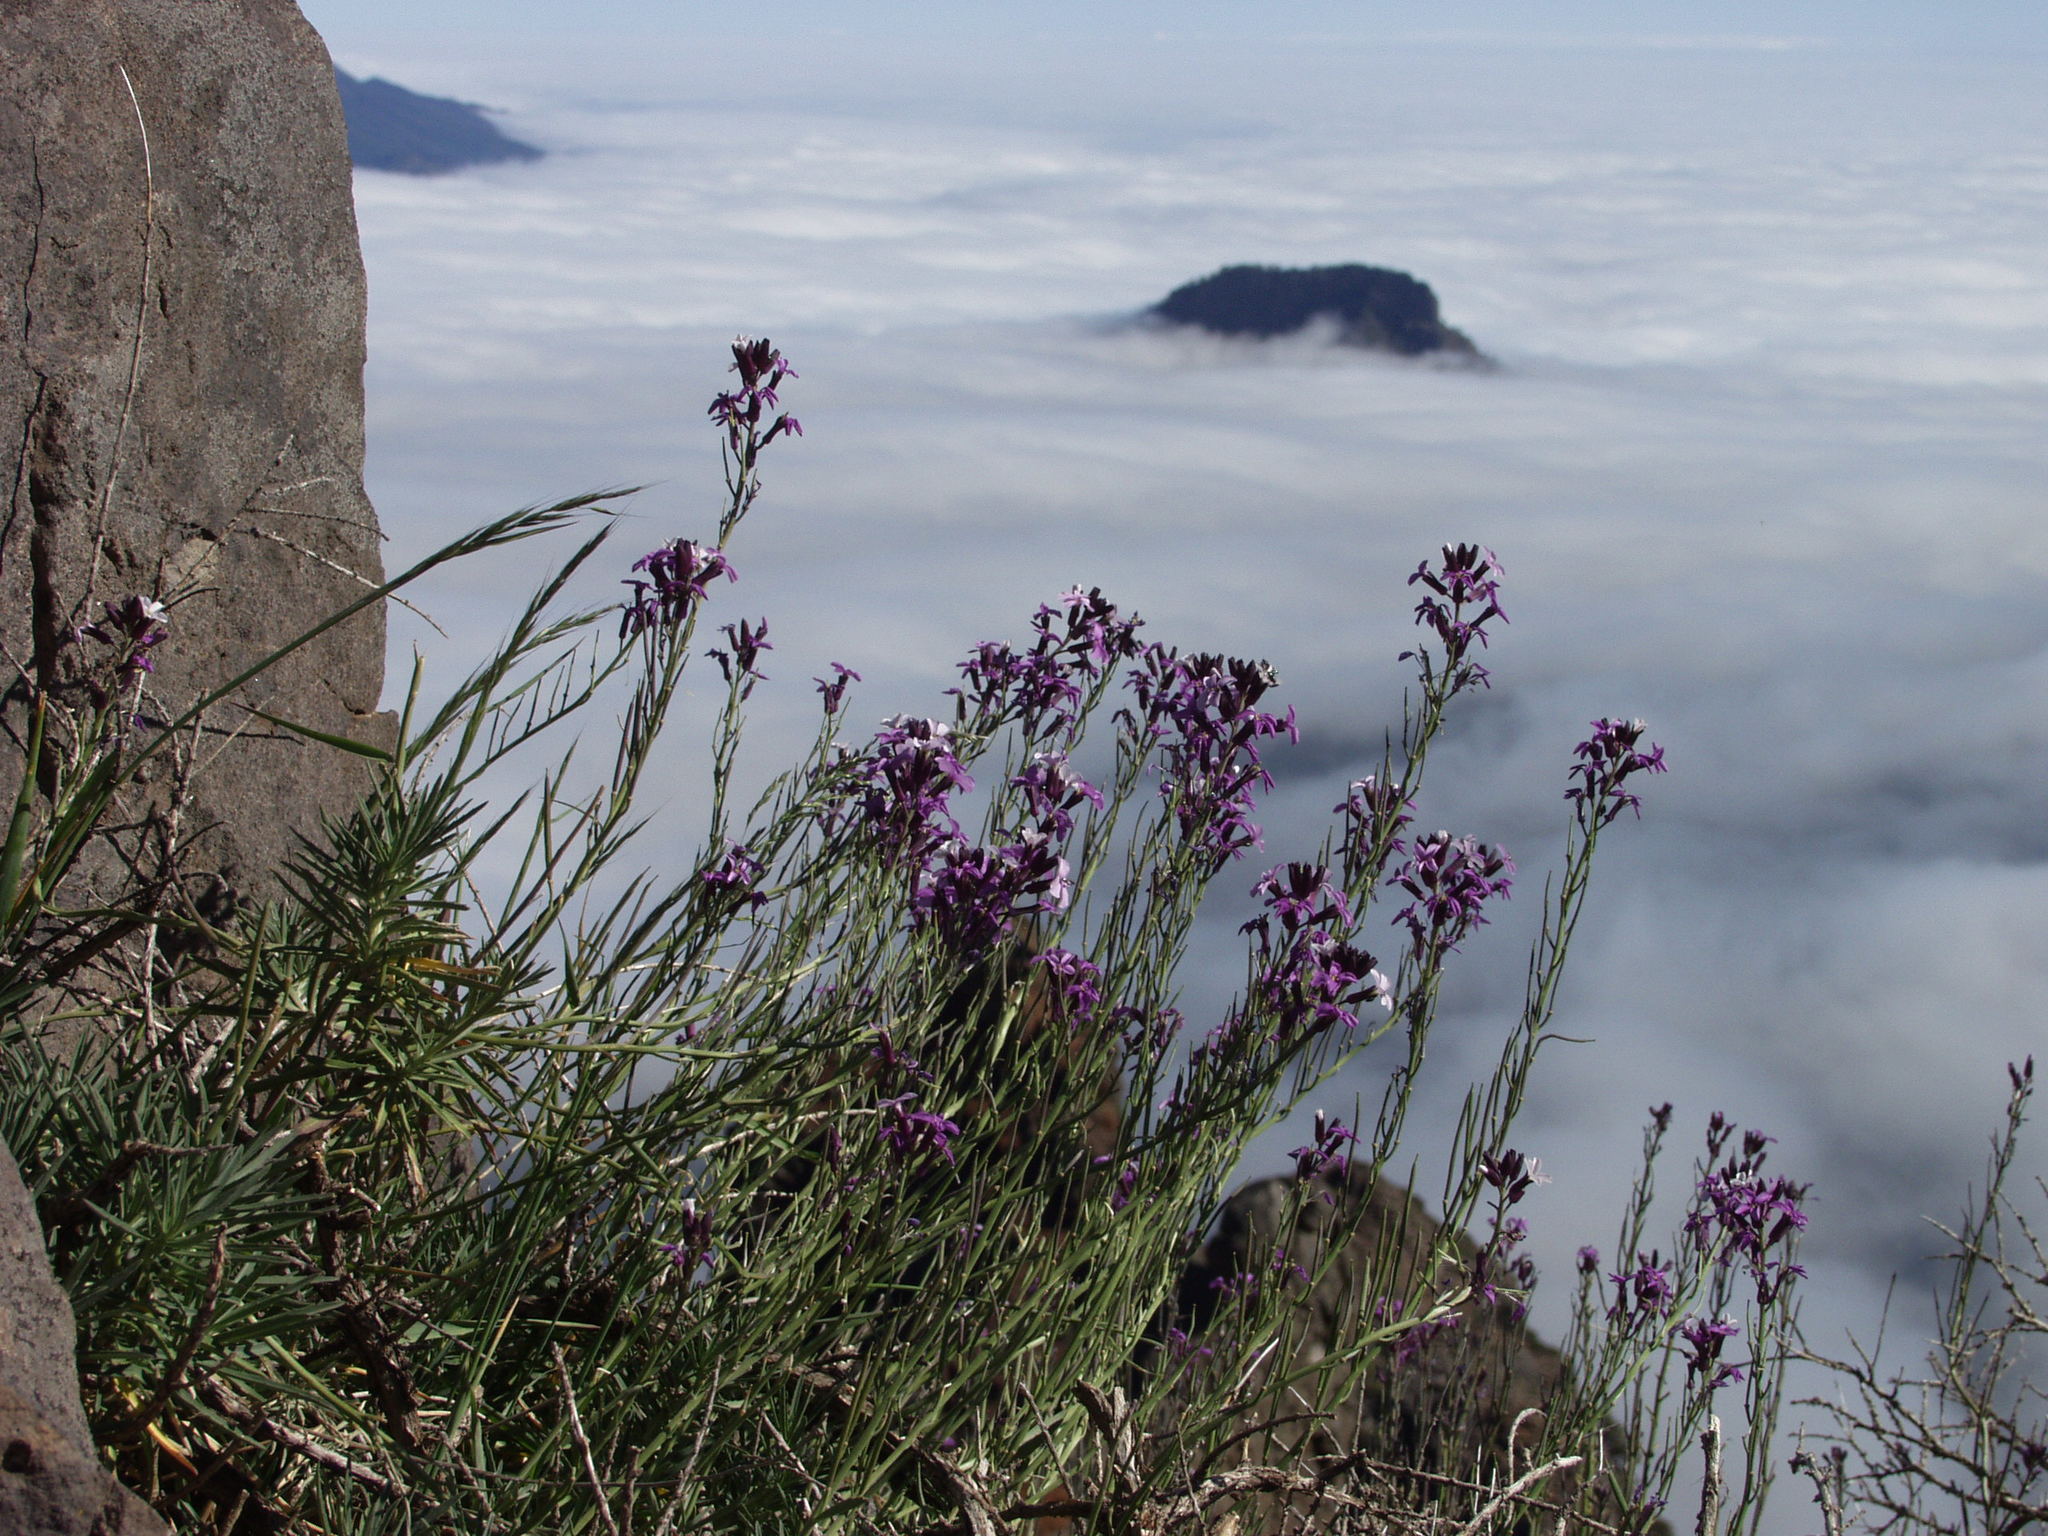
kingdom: Plantae
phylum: Tracheophyta
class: Magnoliopsida
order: Brassicales
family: Brassicaceae
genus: Erysimum
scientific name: Erysimum scoparium
